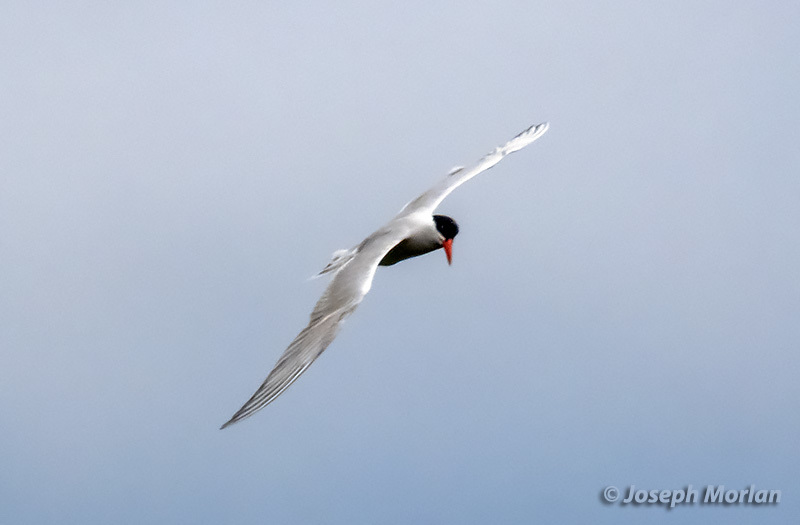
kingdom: Animalia
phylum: Chordata
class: Aves
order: Charadriiformes
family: Laridae
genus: Hydroprogne
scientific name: Hydroprogne caspia
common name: Caspian tern
